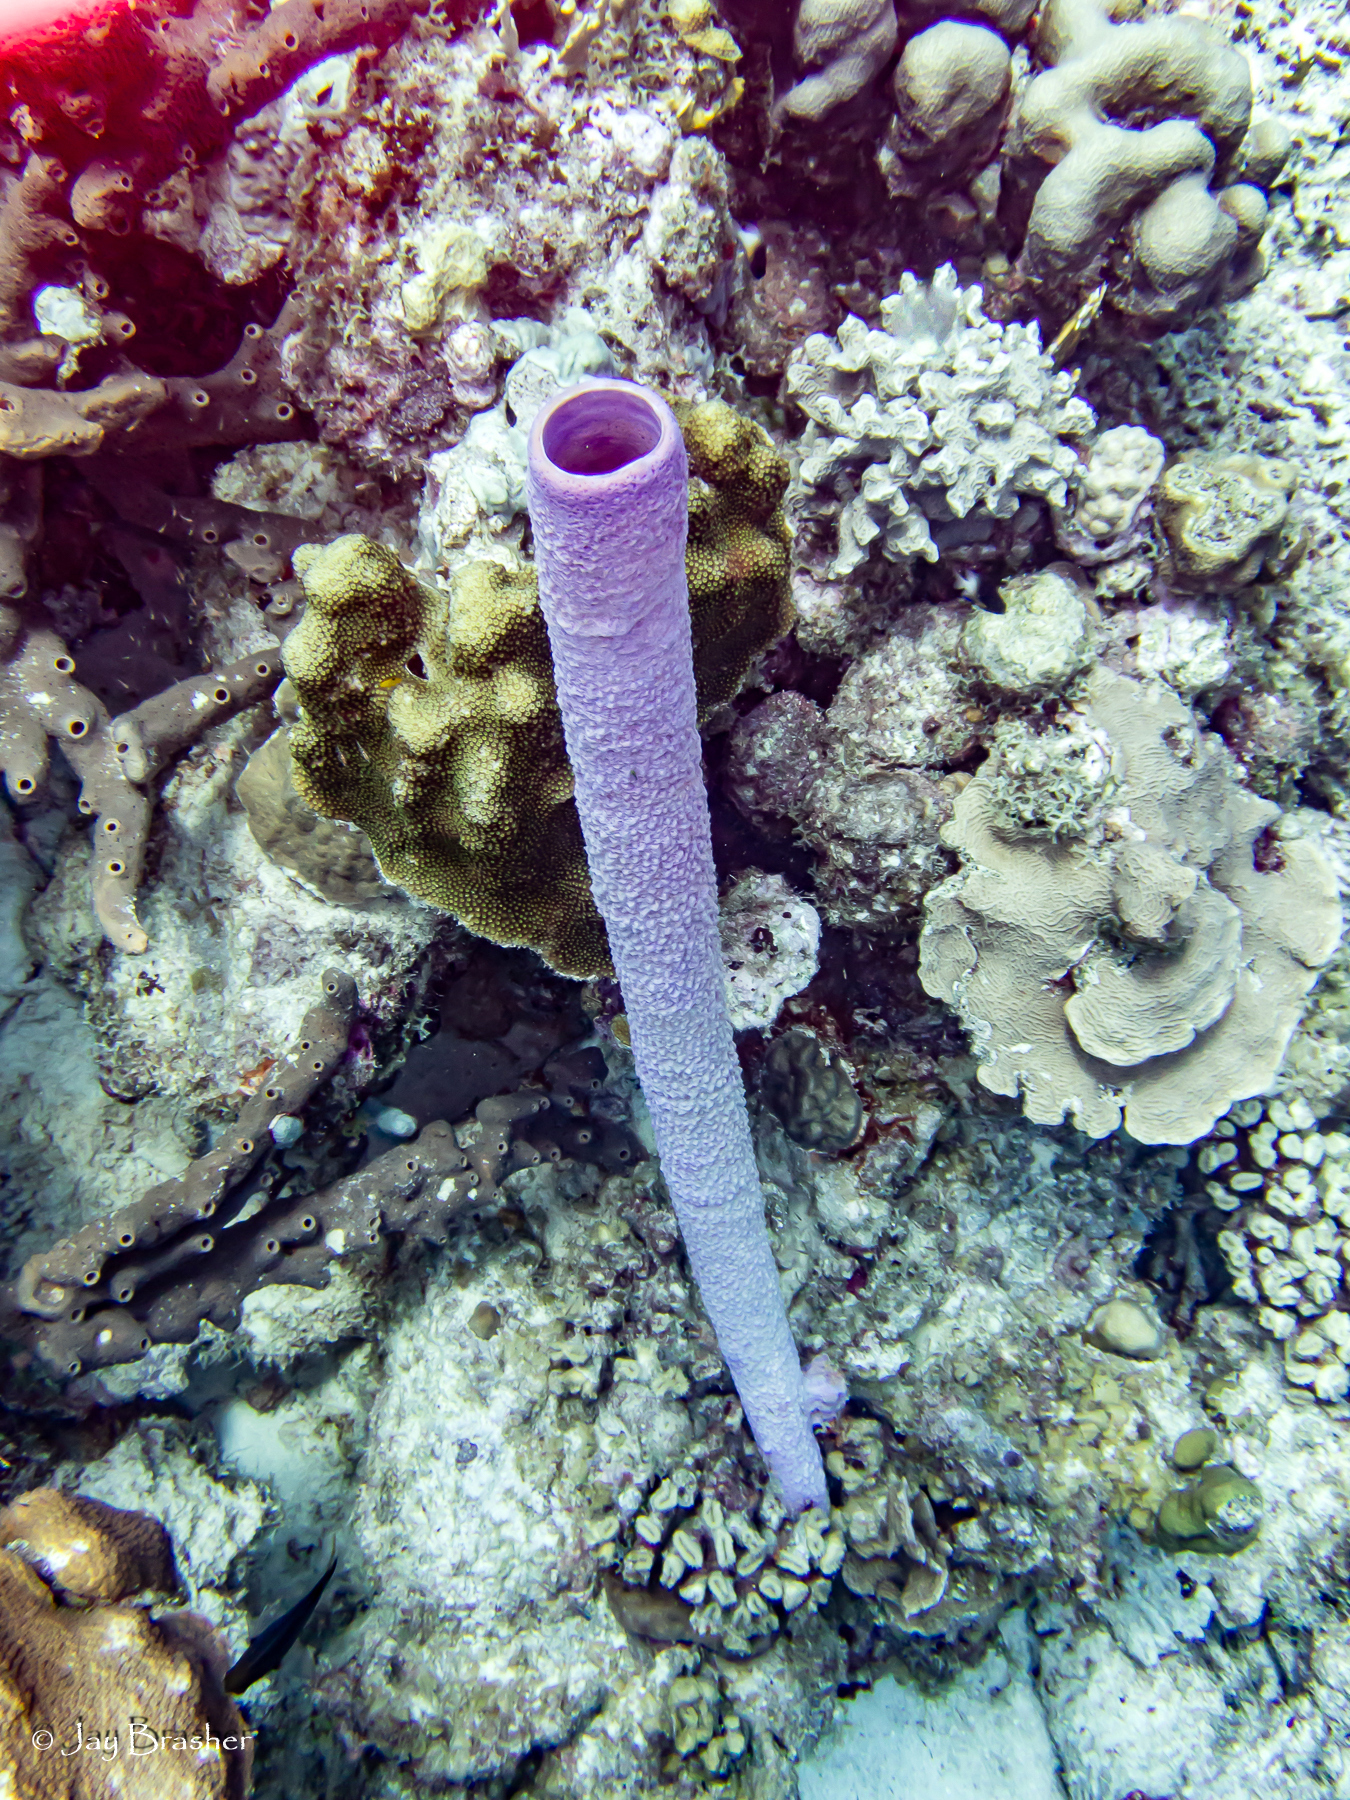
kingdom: Animalia
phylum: Porifera
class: Demospongiae
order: Agelasida
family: Agelasidae
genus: Agelas
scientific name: Agelas conifera
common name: Brown tube sponge
